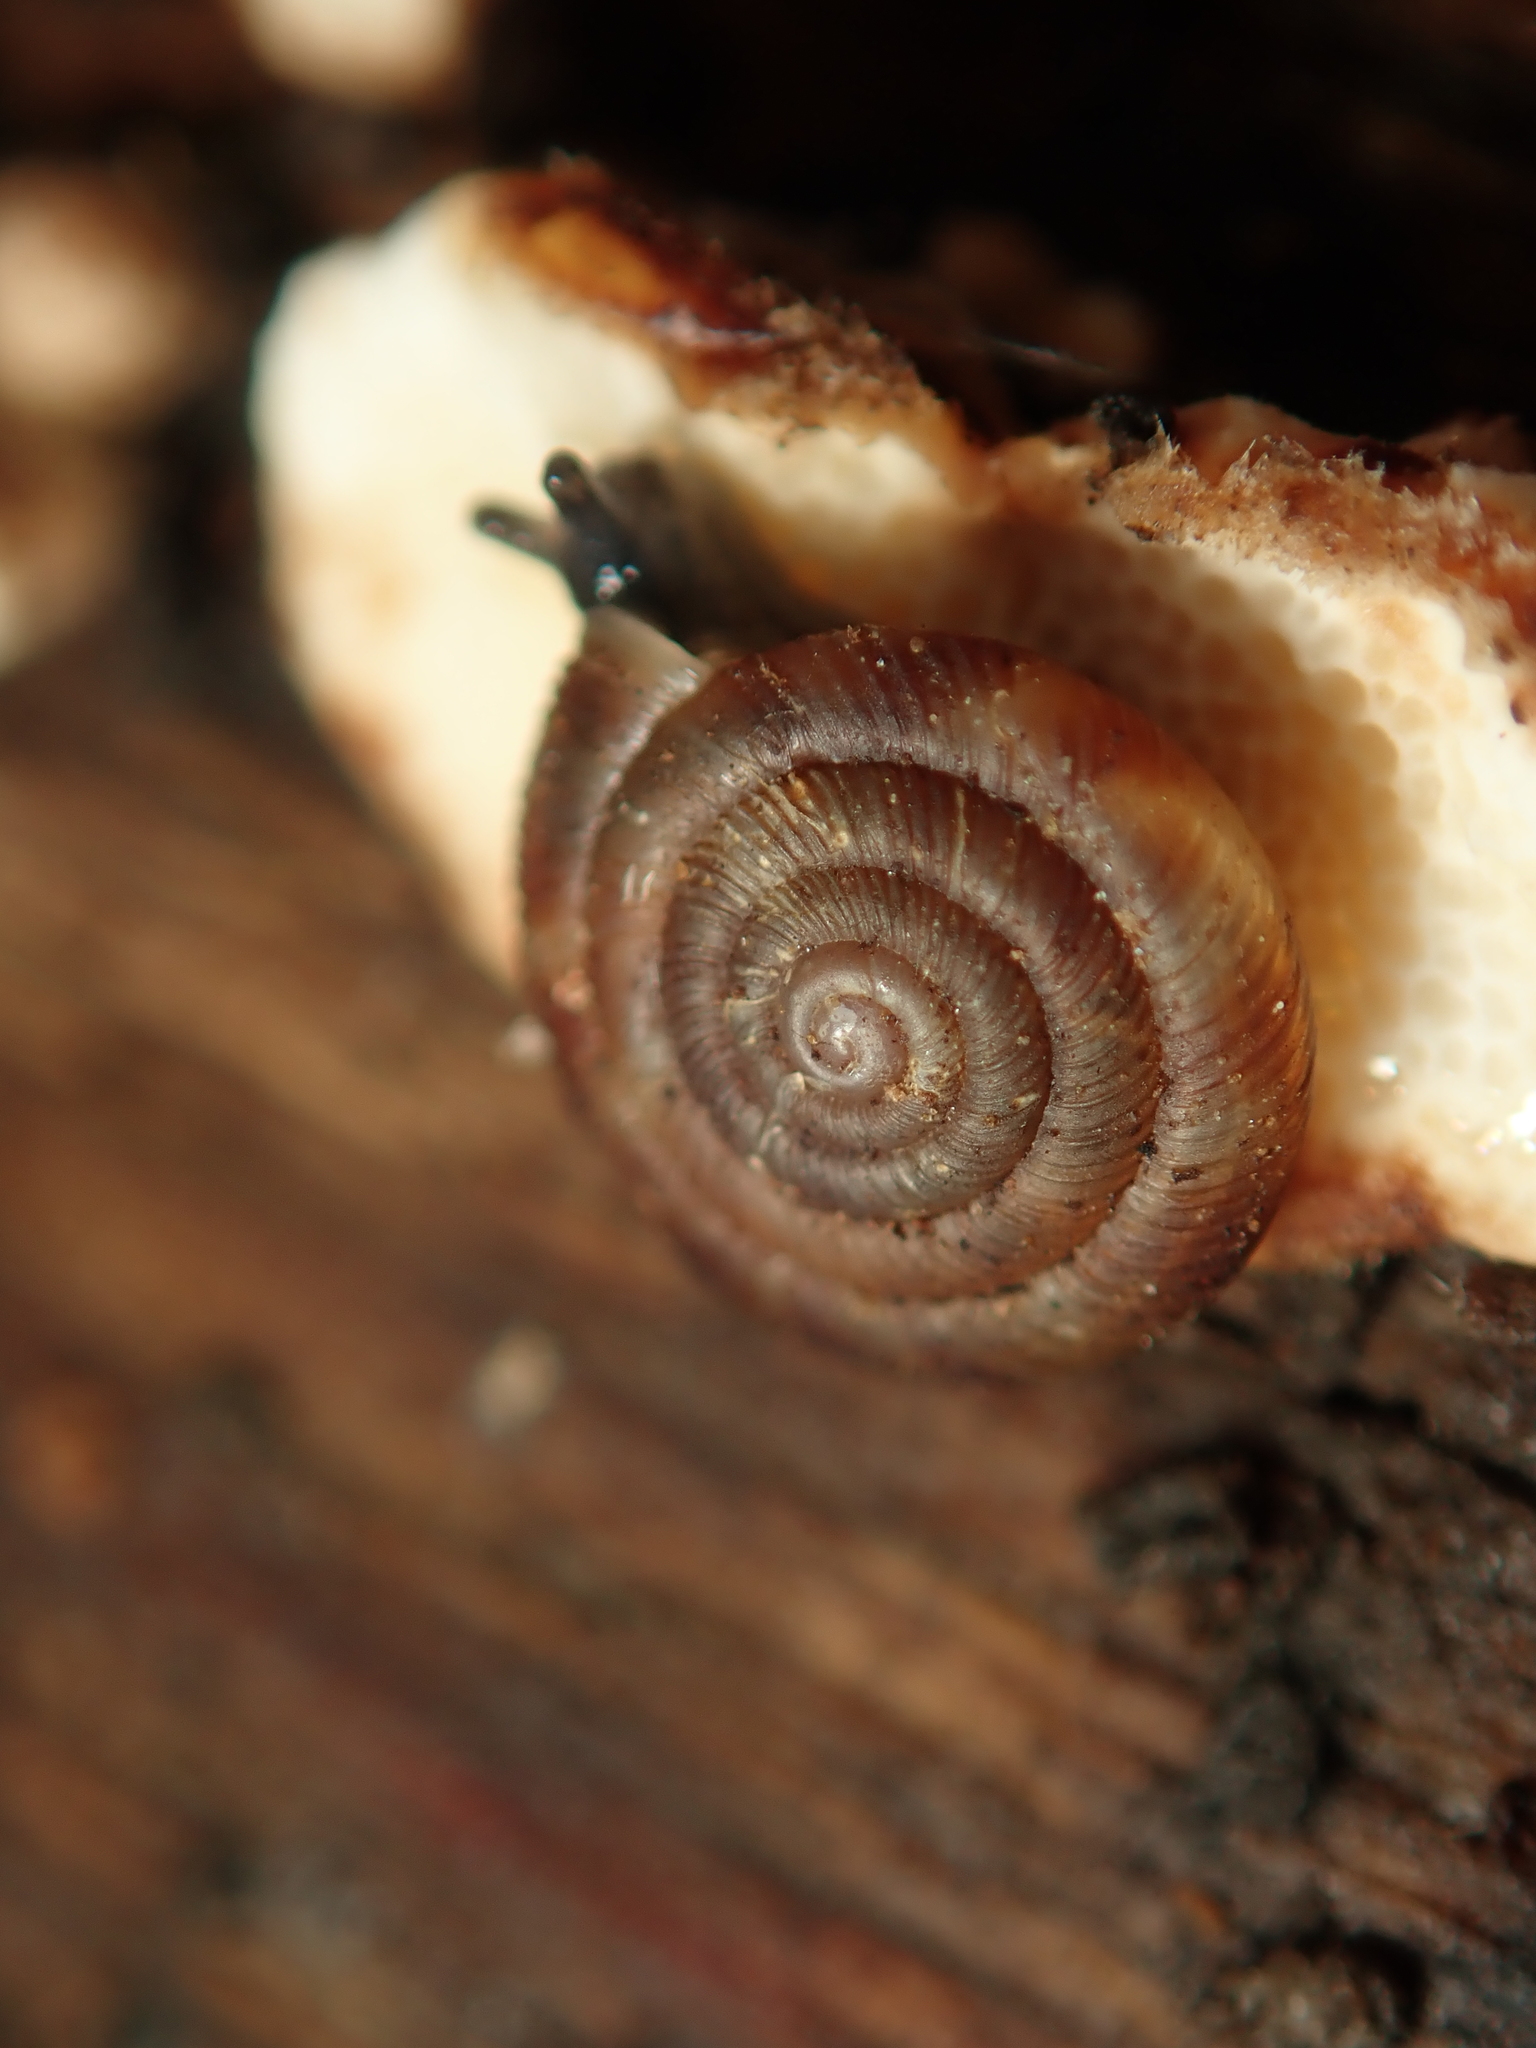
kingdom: Animalia
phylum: Mollusca
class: Gastropoda
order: Stylommatophora
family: Discidae
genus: Discus
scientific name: Discus rotundatus
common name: Rounded snail
